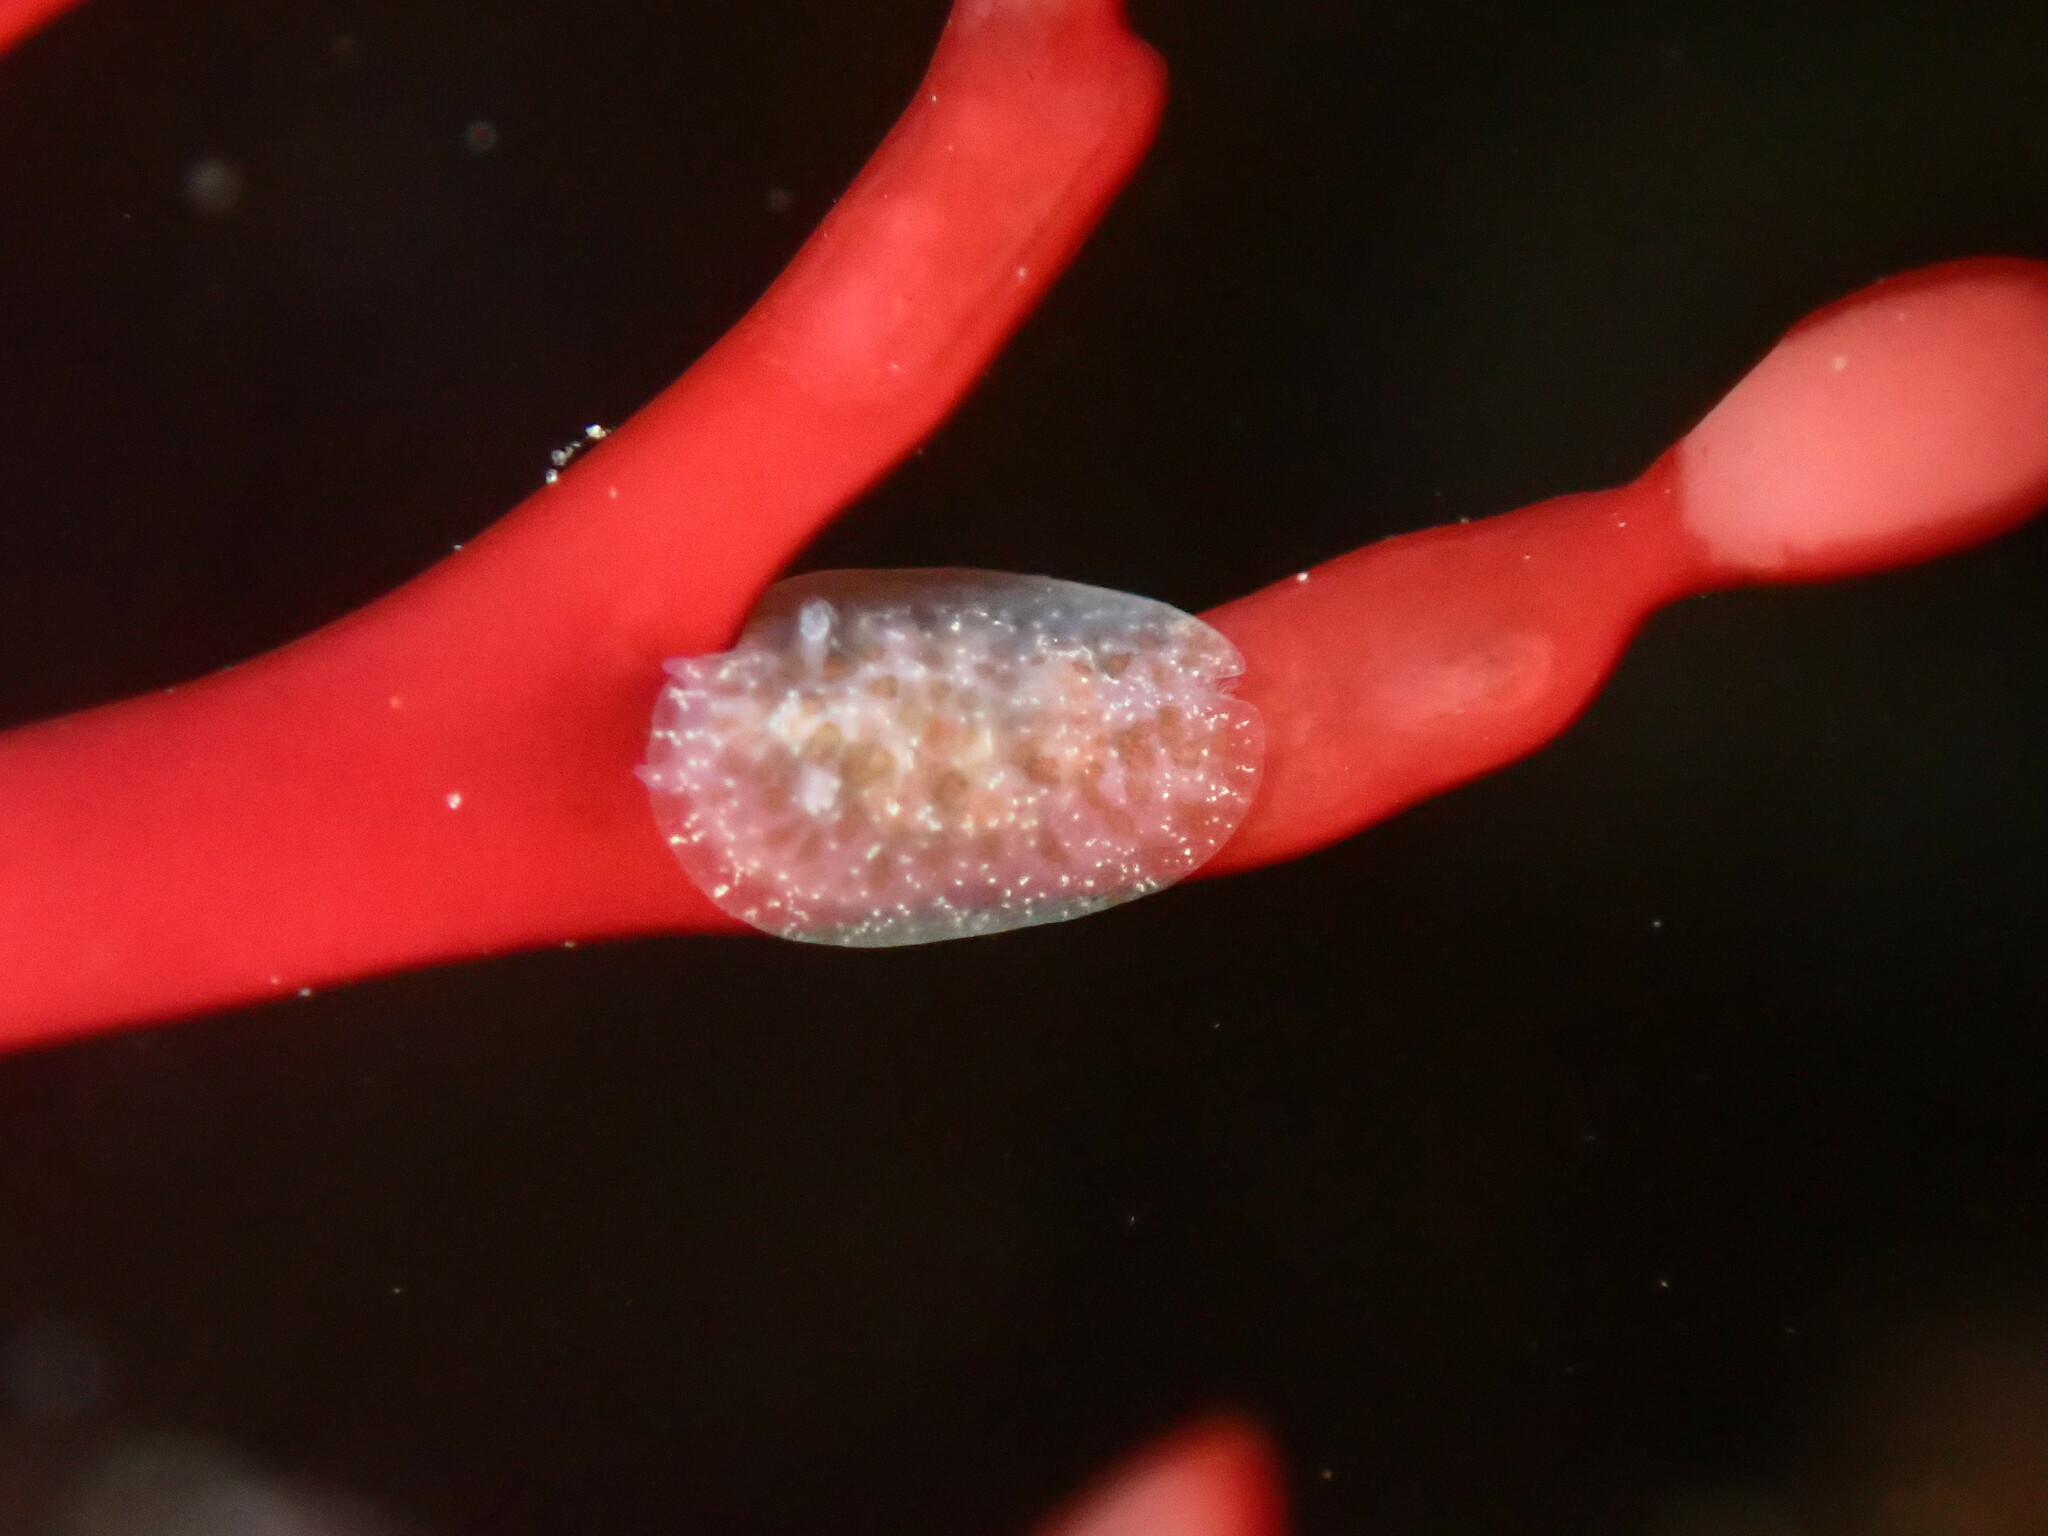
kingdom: Animalia
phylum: Mollusca
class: Gastropoda
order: Nudibranchia
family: Corambidae
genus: Corambe
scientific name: Corambe pacifica
